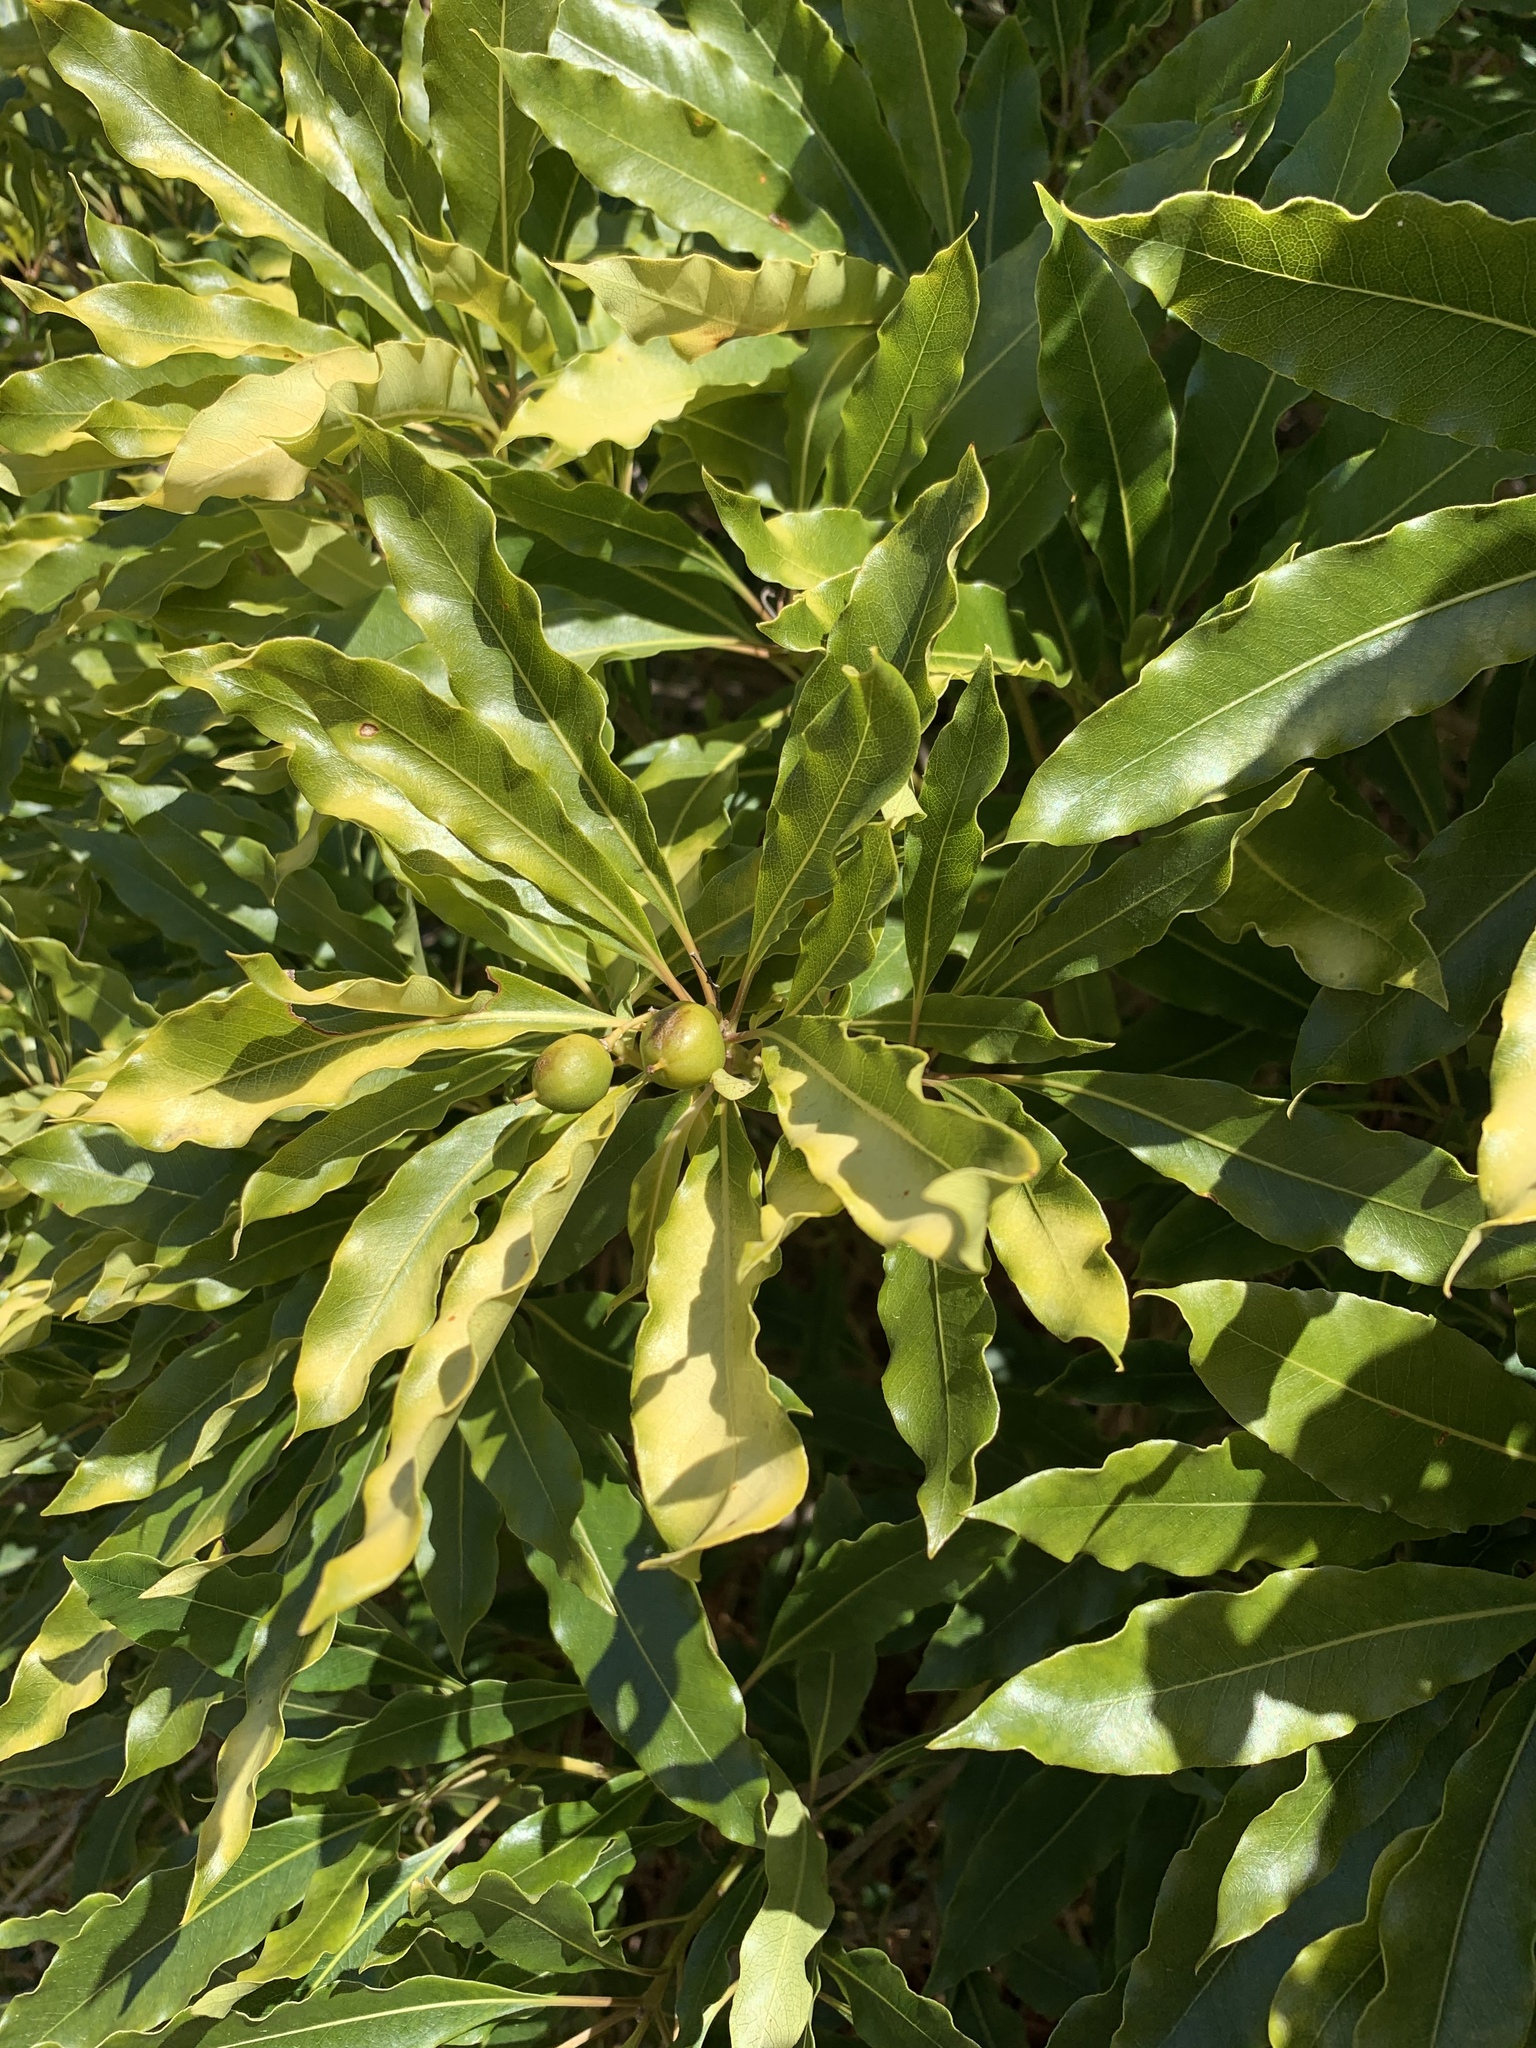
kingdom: Plantae
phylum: Tracheophyta
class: Magnoliopsida
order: Apiales
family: Pittosporaceae
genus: Pittosporum
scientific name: Pittosporum undulatum
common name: Australian cheesewood
